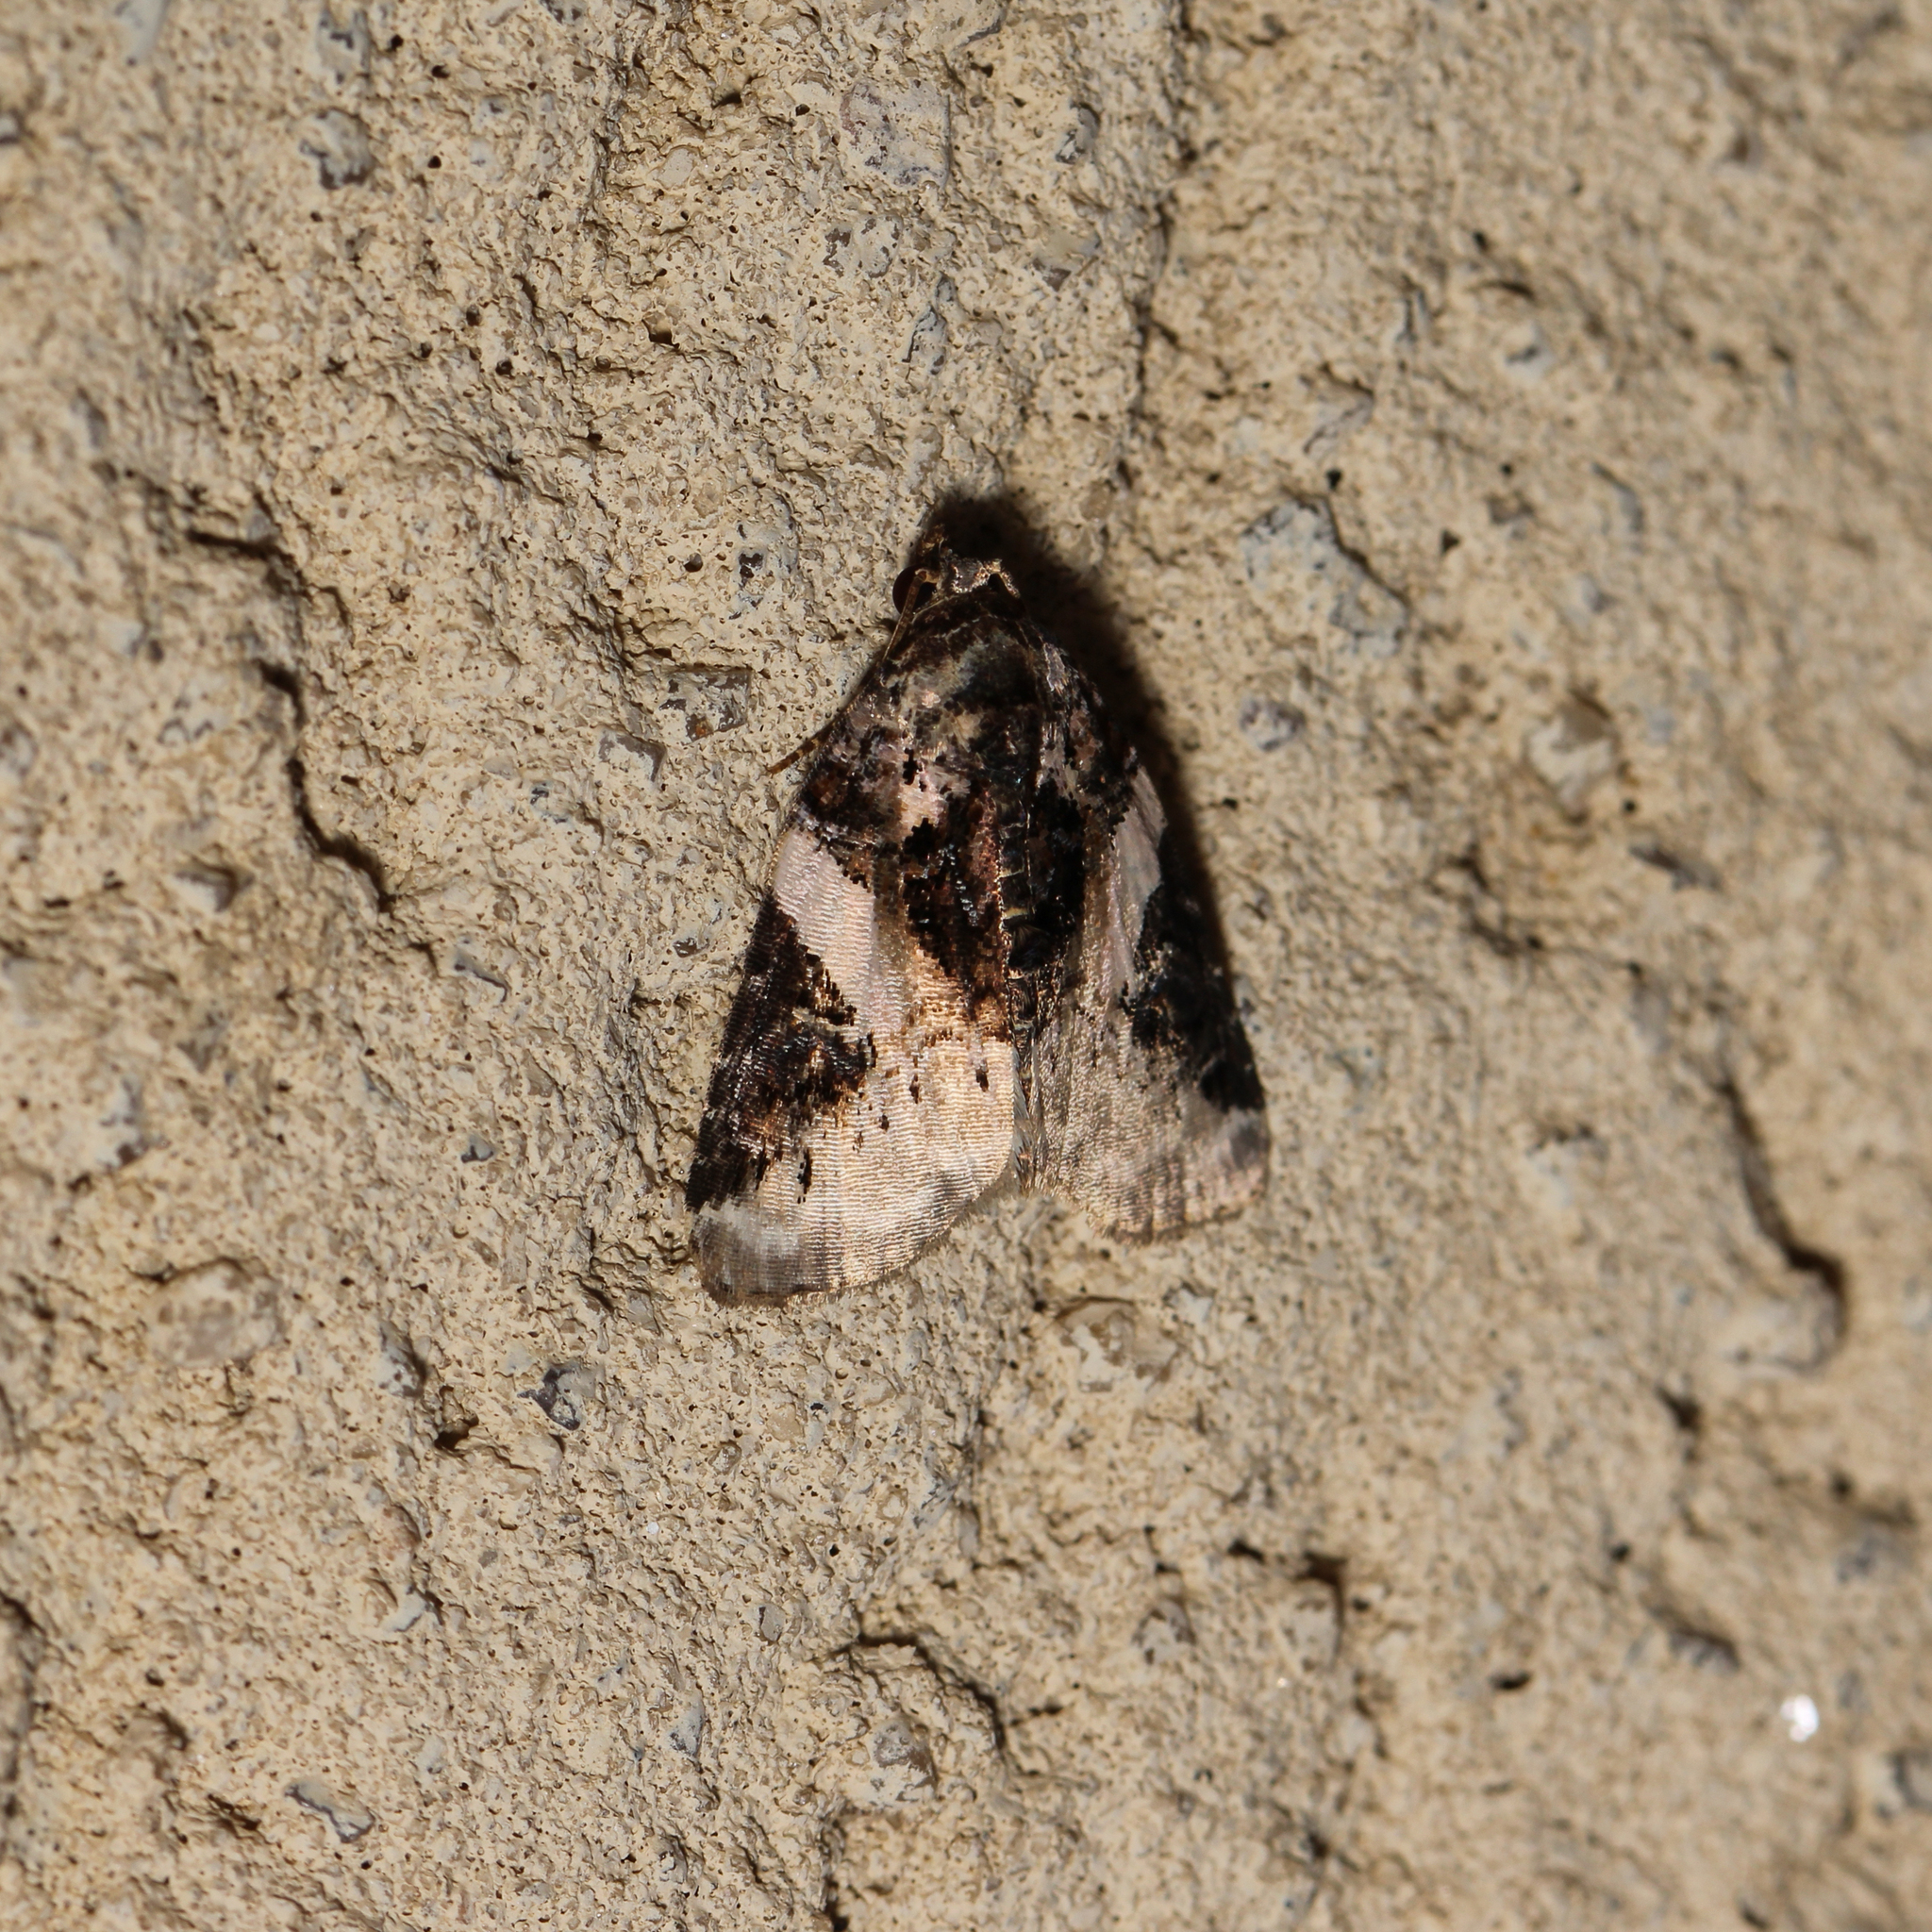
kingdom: Animalia
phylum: Arthropoda
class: Insecta
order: Lepidoptera
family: Noctuidae
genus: Pseudeustrotia
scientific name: Pseudeustrotia carneola
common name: Pink-barred lithacodia moth
